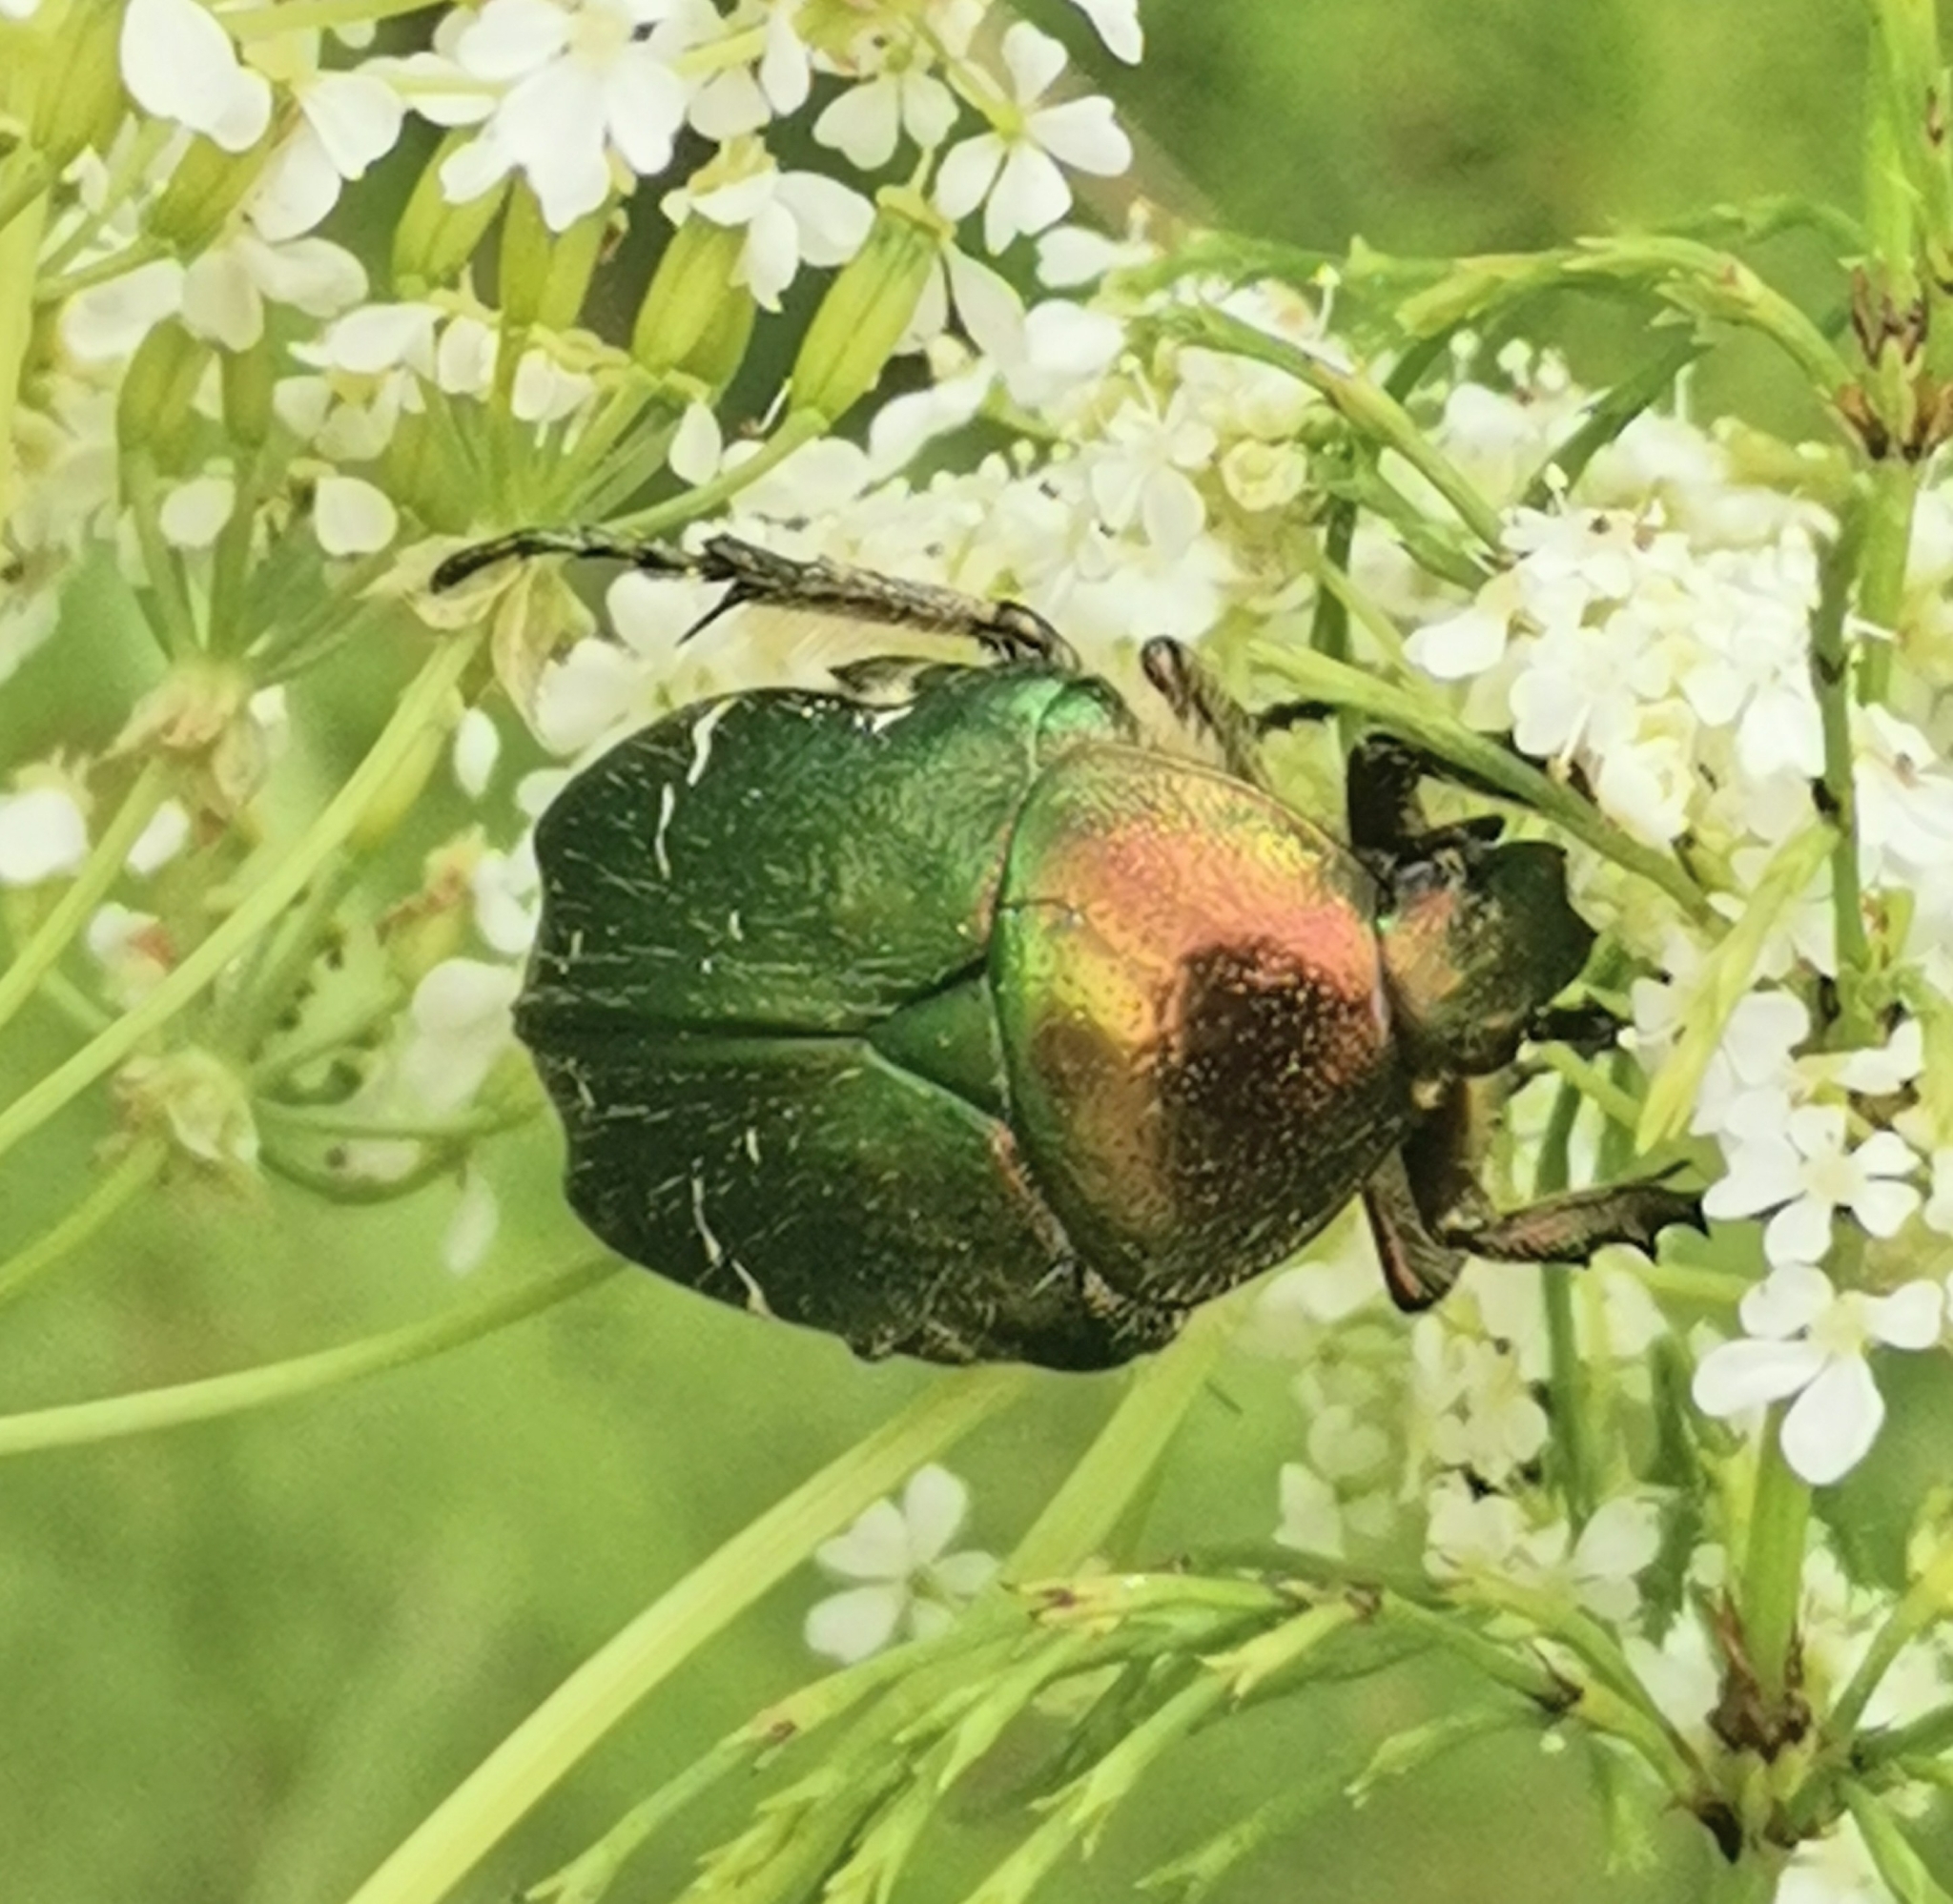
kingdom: Animalia
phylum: Arthropoda
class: Insecta
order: Coleoptera
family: Scarabaeidae
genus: Cetonia
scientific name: Cetonia aurata
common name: Rose chafer
